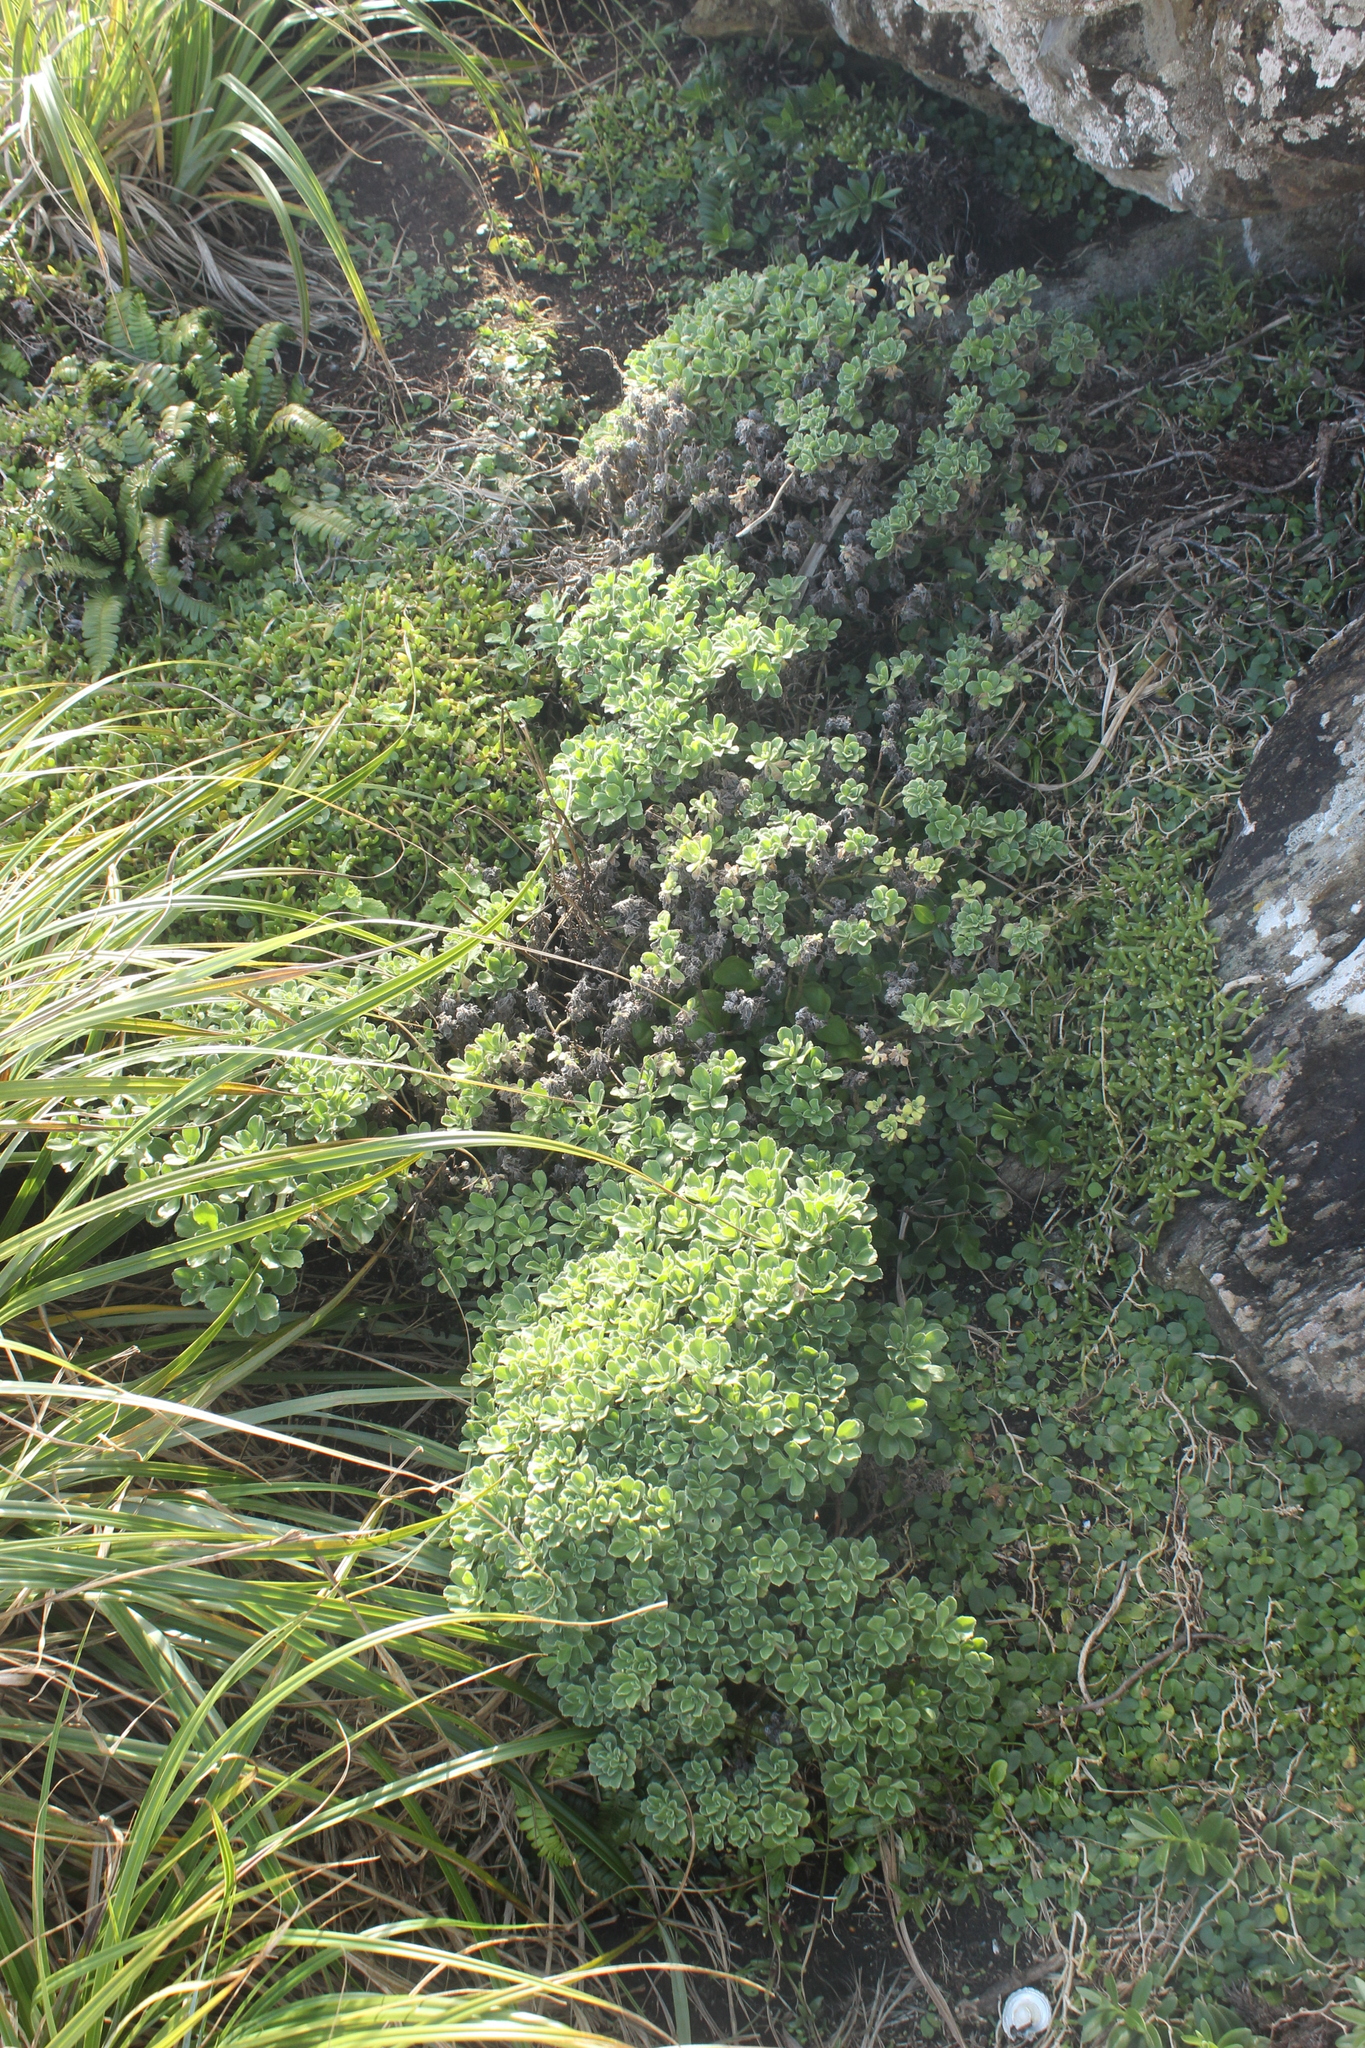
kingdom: Plantae
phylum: Tracheophyta
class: Magnoliopsida
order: Asterales
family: Asteraceae
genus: Leptinella
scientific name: Leptinella featherstonii
